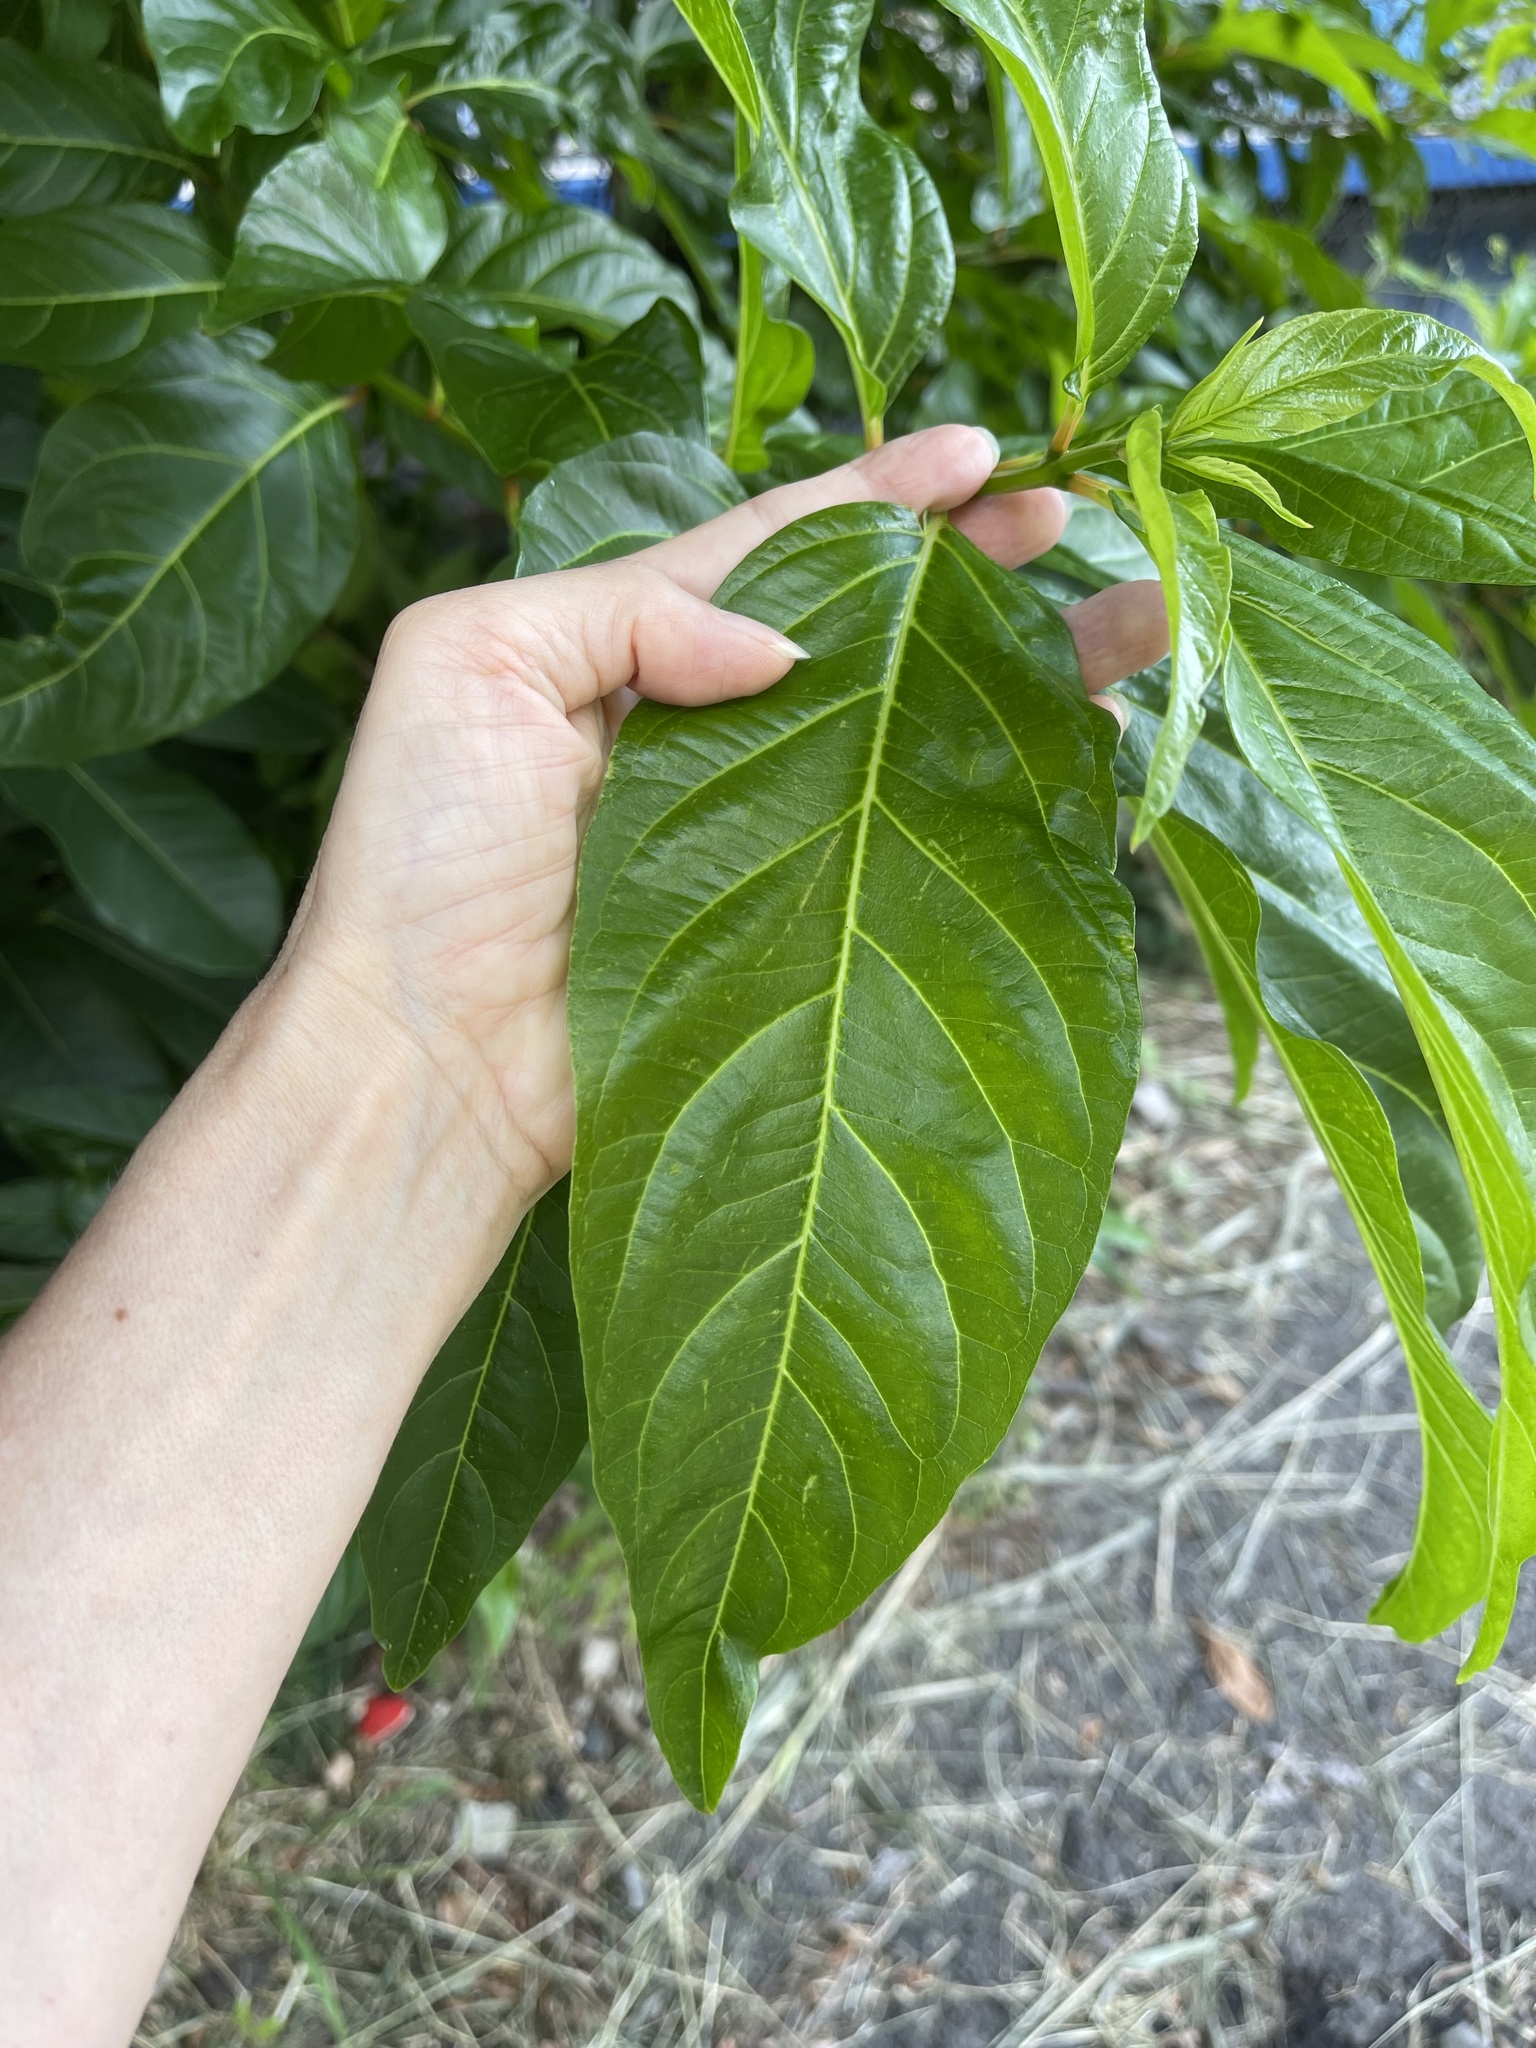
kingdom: Plantae
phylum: Tracheophyta
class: Magnoliopsida
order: Lamiales
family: Verbenaceae
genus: Citharexylum
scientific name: Citharexylum spinosum
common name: Fiddlewood
